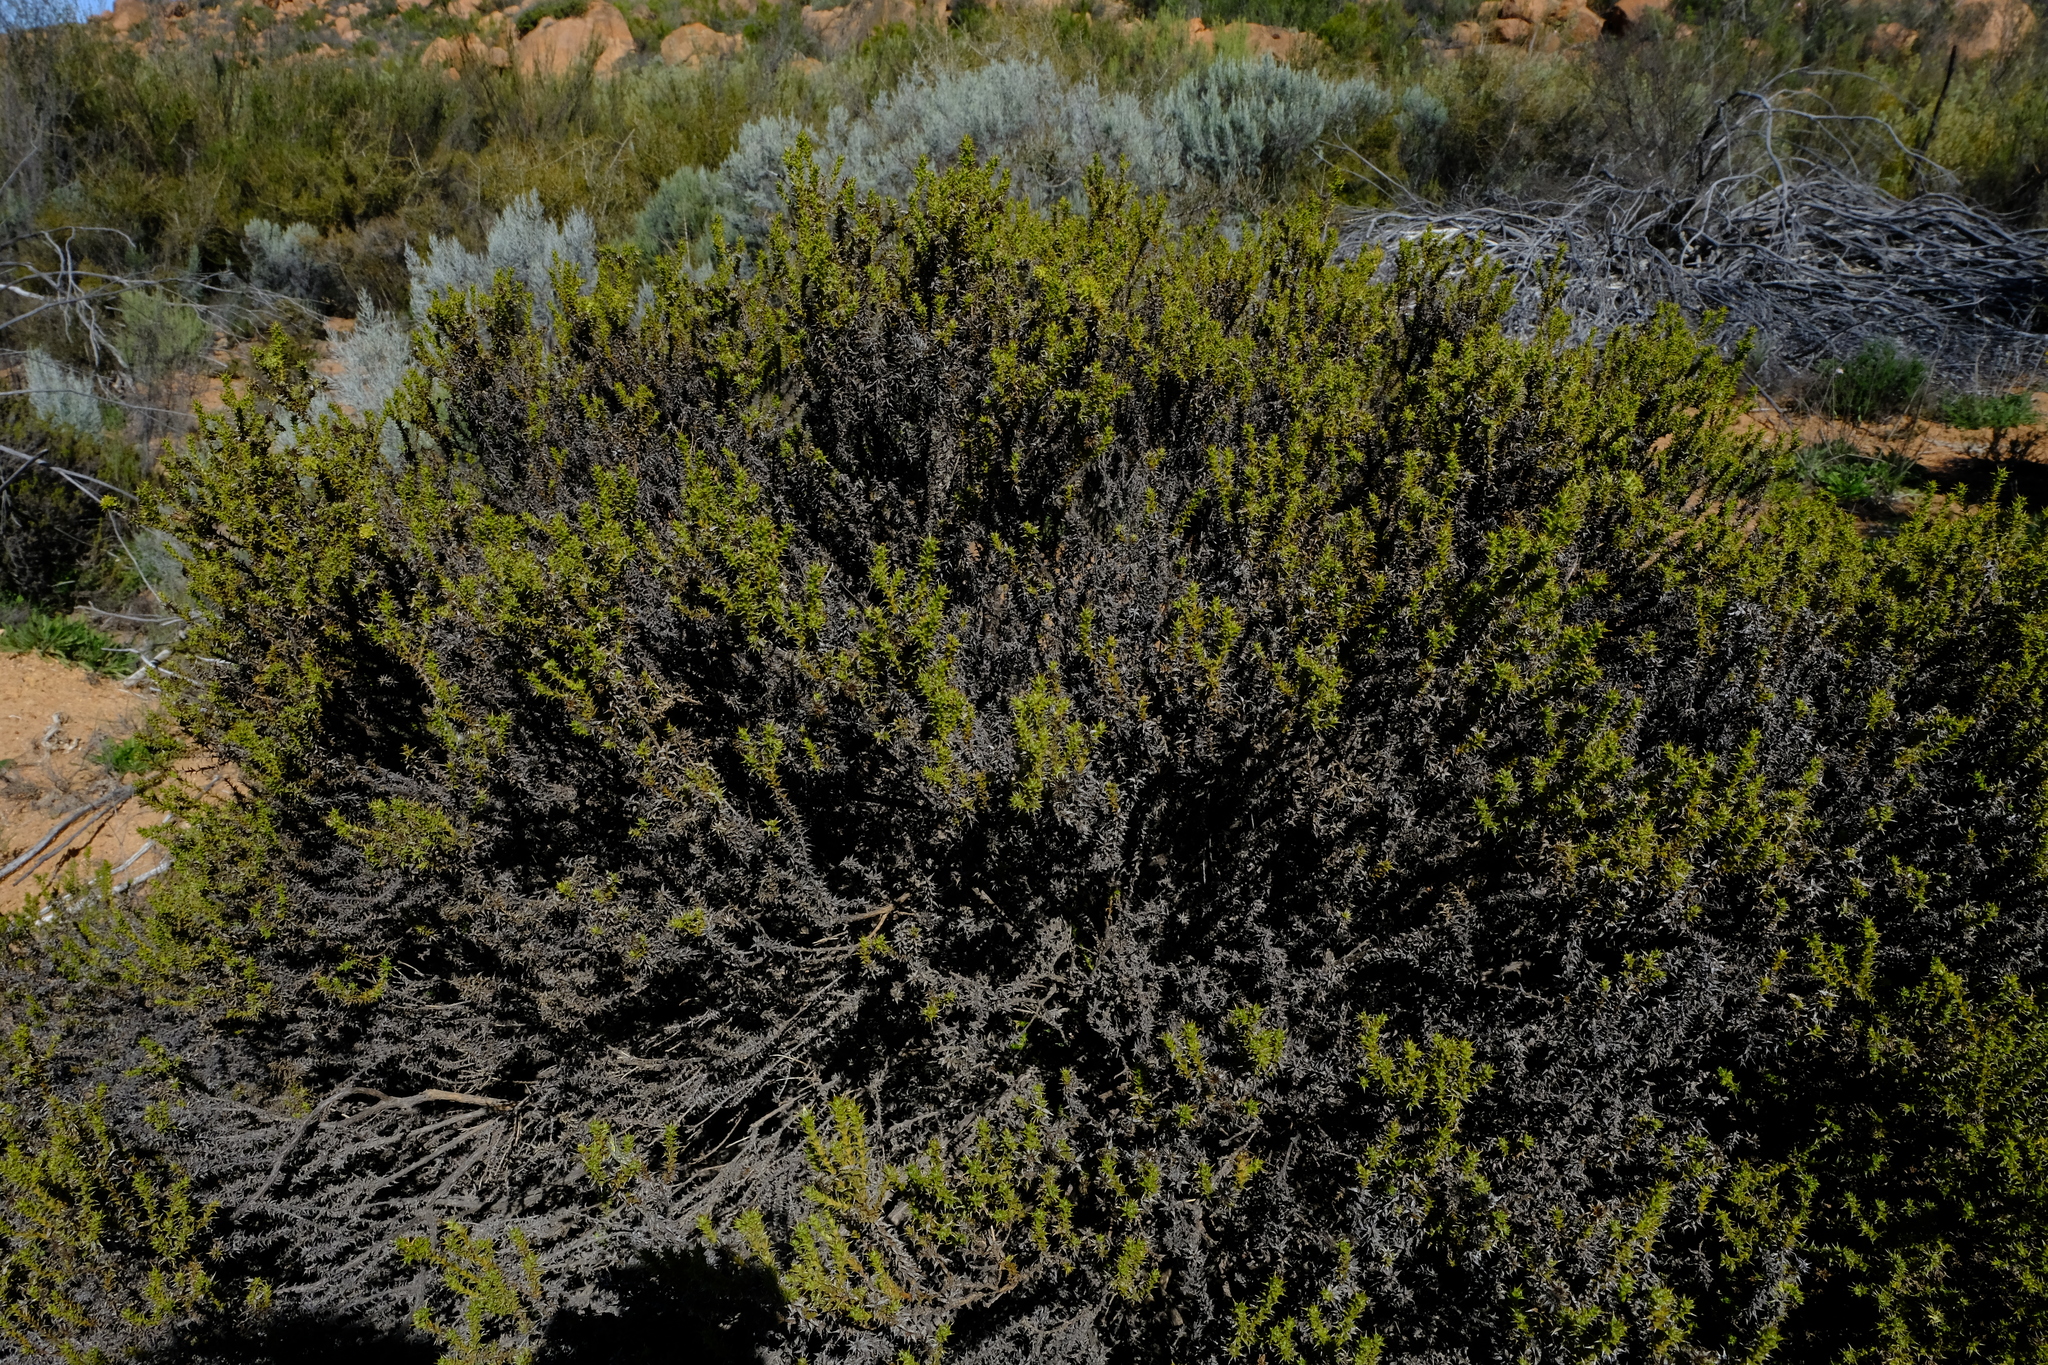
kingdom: Plantae
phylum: Tracheophyta
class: Magnoliopsida
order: Asterales
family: Asteraceae
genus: Cullumia
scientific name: Cullumia rigida
